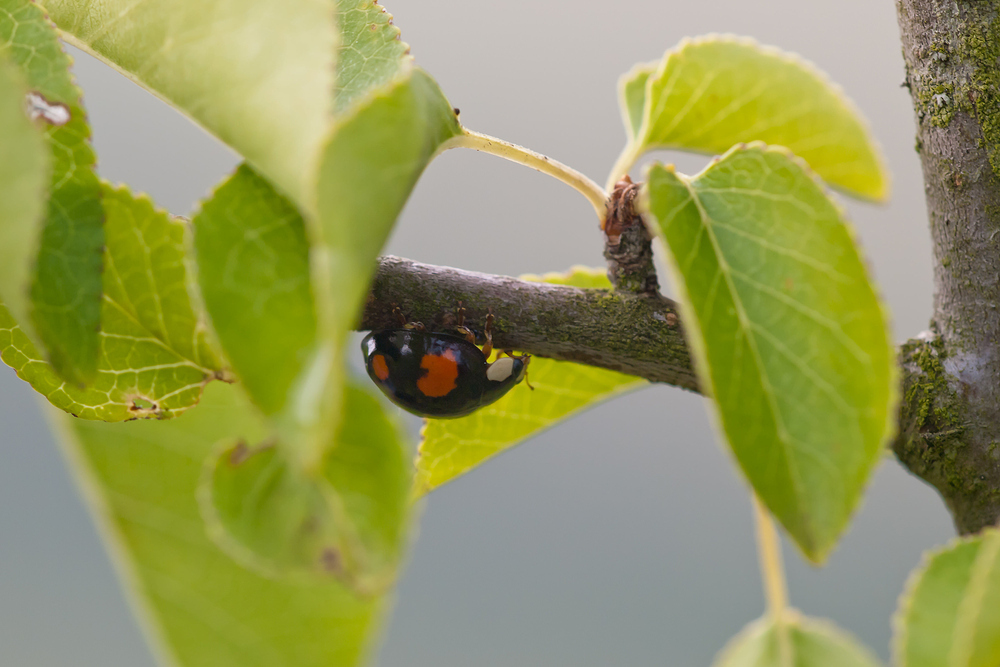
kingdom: Animalia
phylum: Arthropoda
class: Insecta
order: Coleoptera
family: Coccinellidae
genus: Harmonia
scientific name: Harmonia axyridis
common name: Harlequin ladybird
